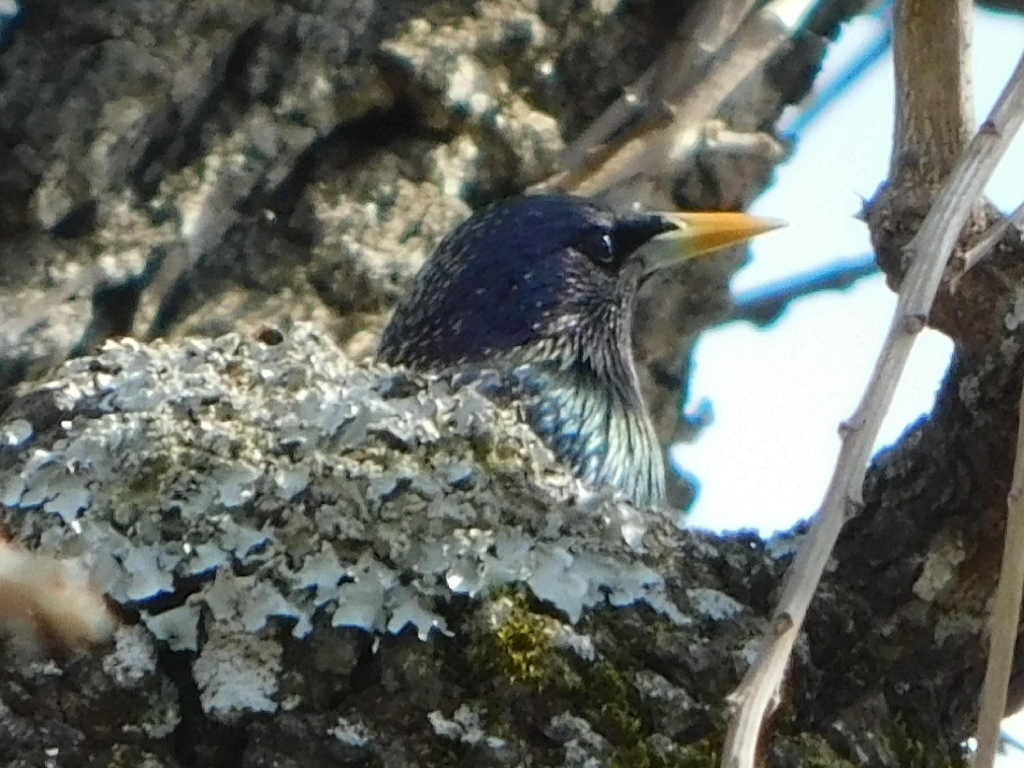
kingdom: Animalia
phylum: Chordata
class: Aves
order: Passeriformes
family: Sturnidae
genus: Sturnus
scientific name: Sturnus vulgaris
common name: Common starling
